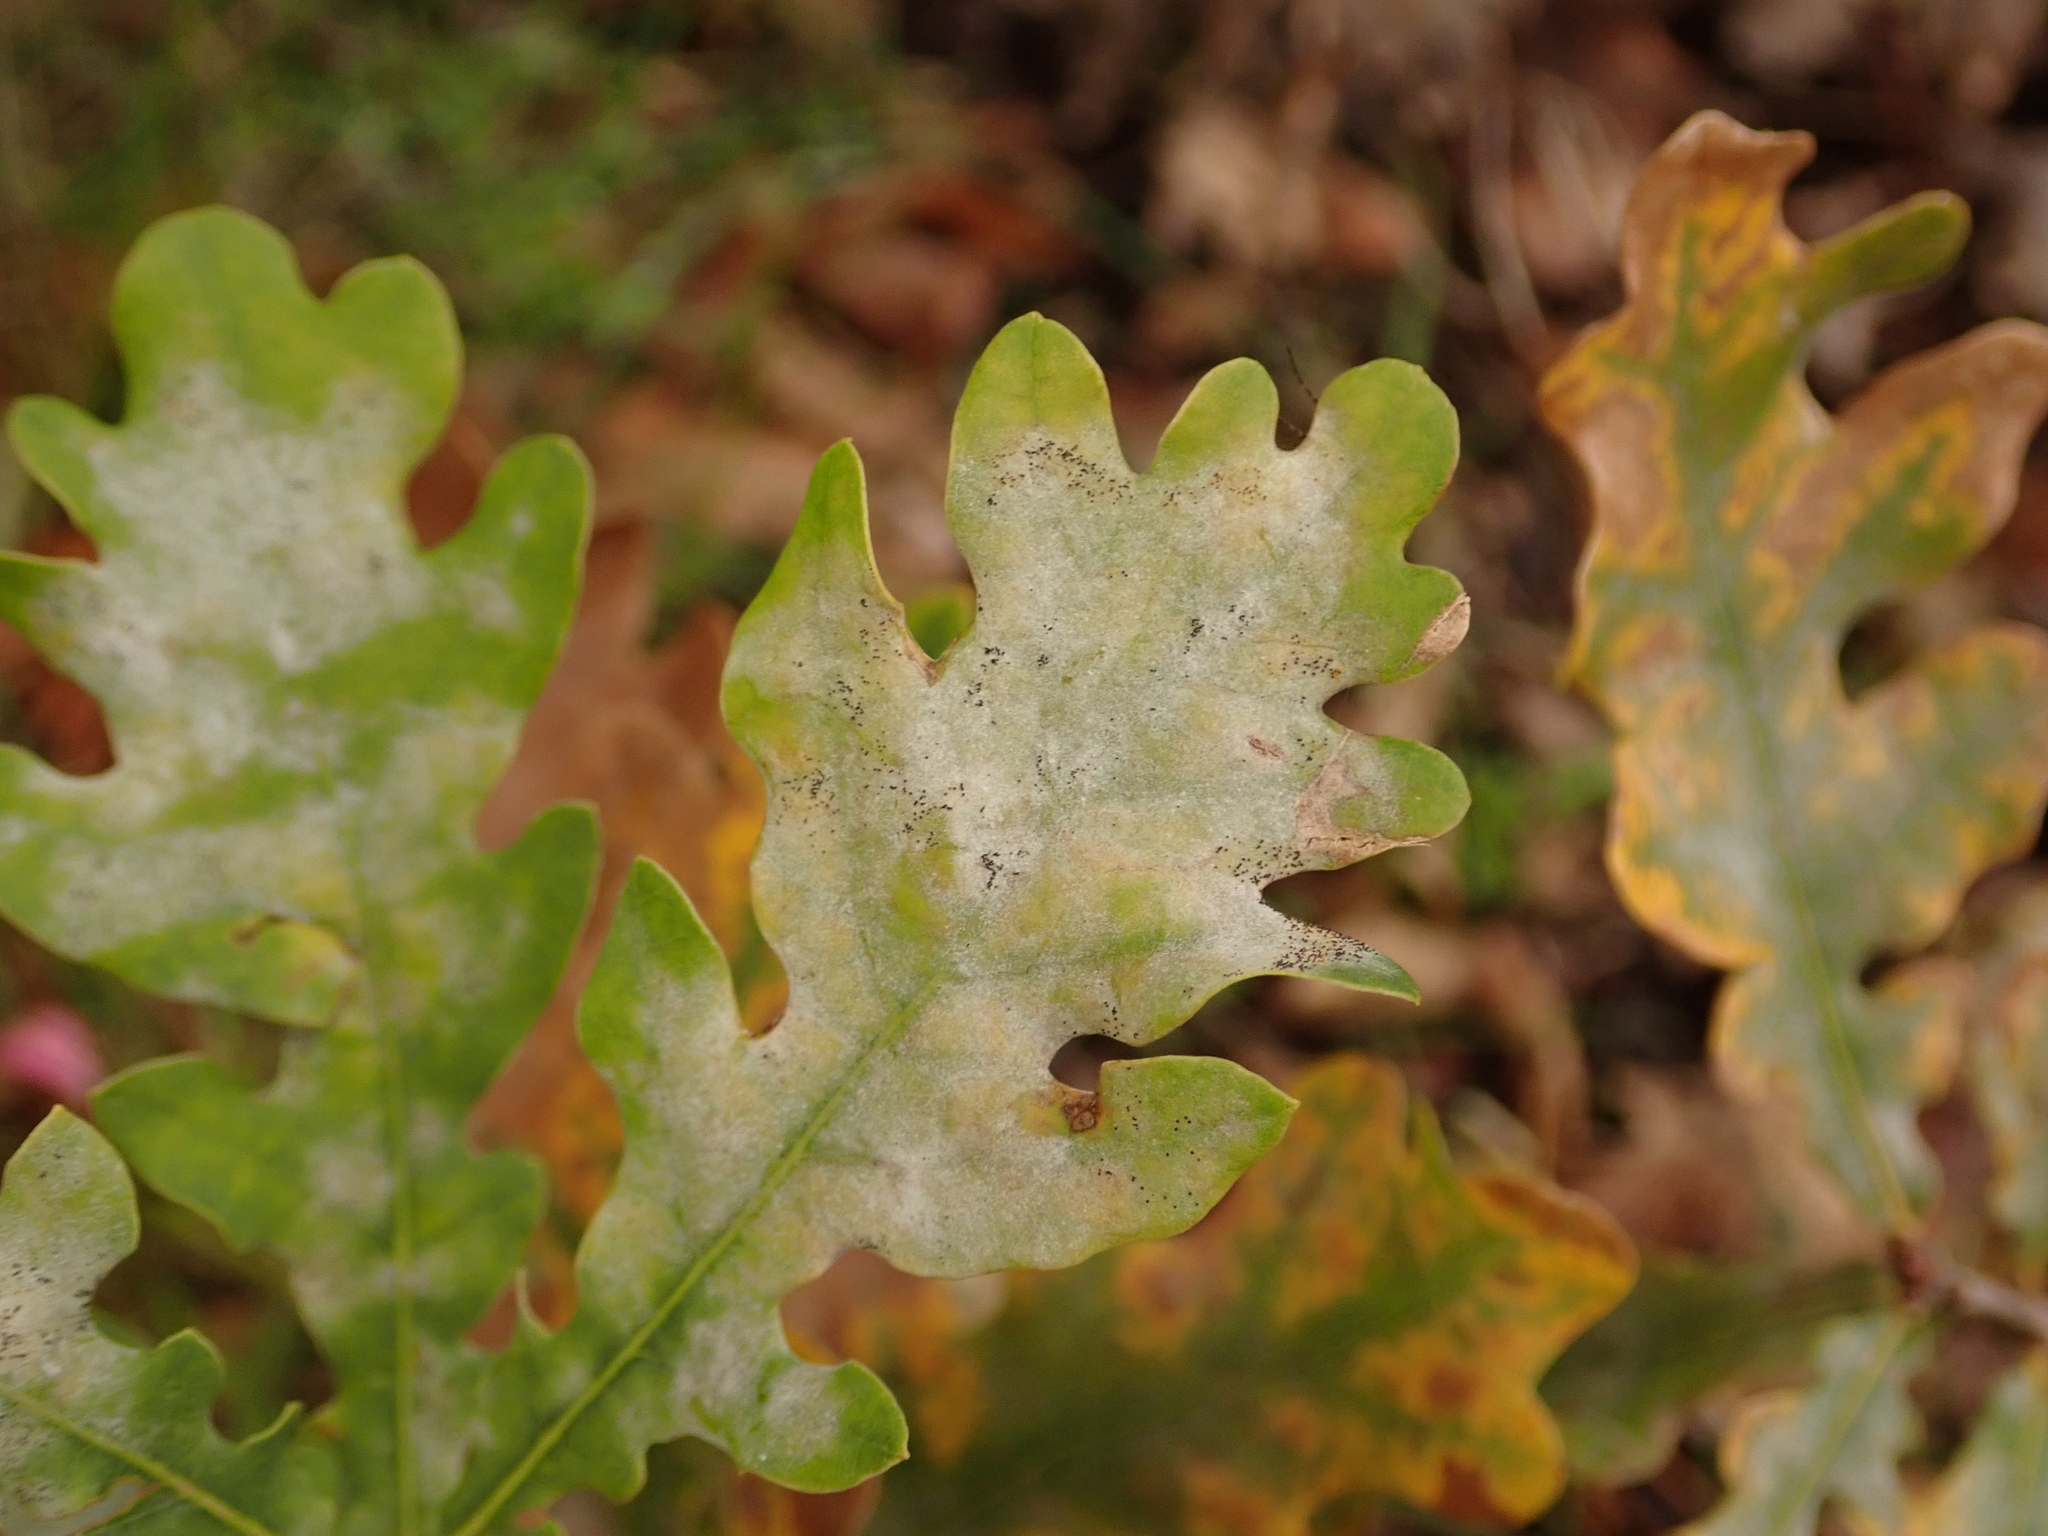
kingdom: Fungi
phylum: Ascomycota
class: Leotiomycetes
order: Helotiales
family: Erysiphaceae
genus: Erysiphe
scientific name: Erysiphe
